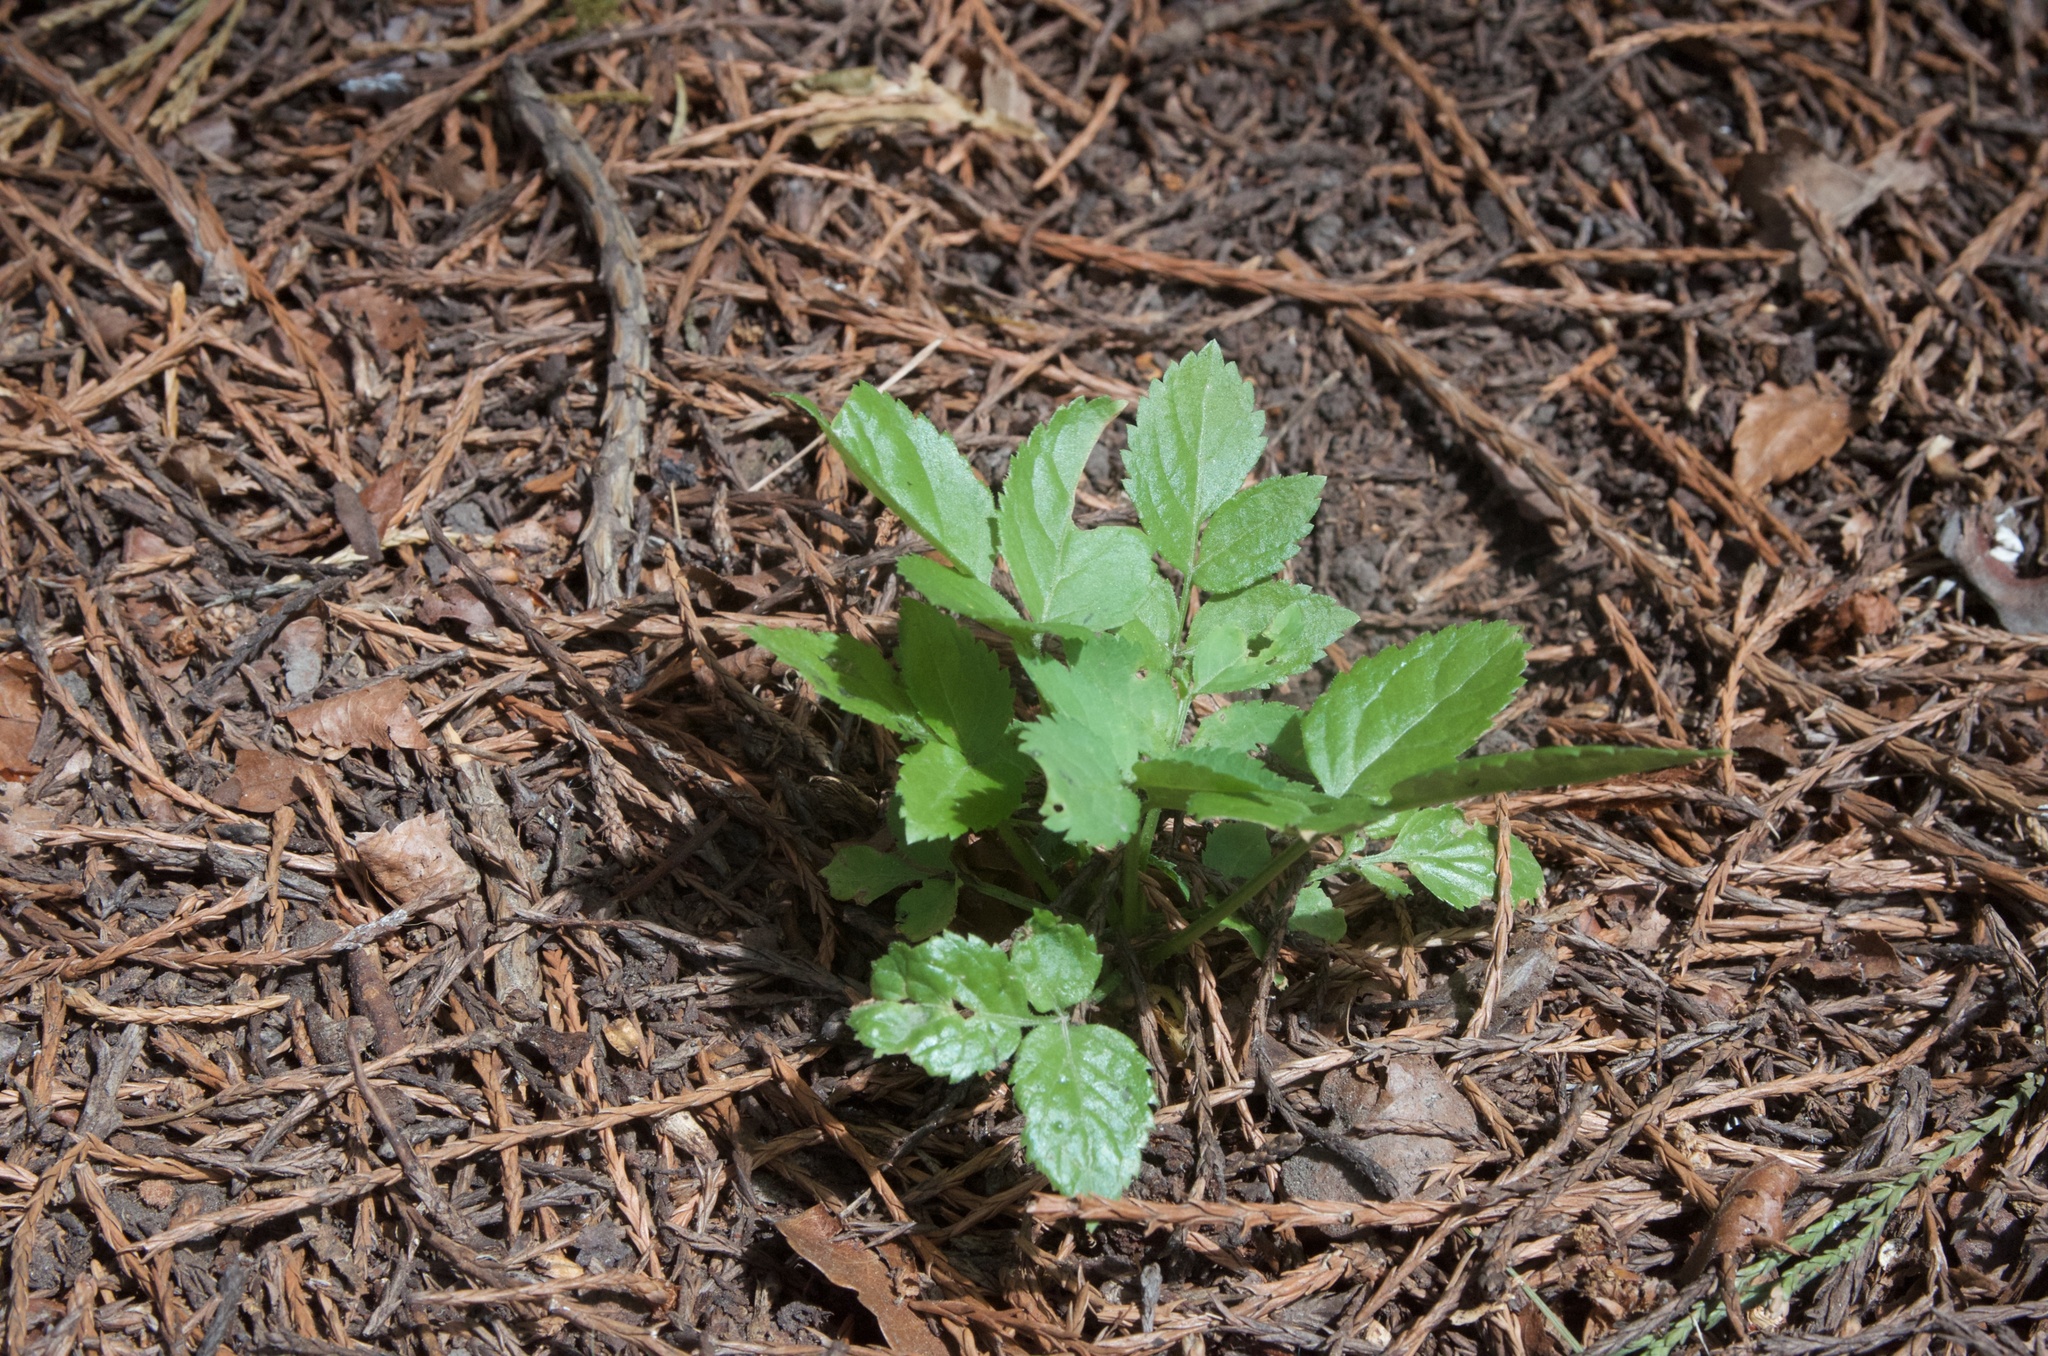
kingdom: Plantae
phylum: Tracheophyta
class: Magnoliopsida
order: Dipsacales
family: Viburnaceae
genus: Sambucus
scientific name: Sambucus nigra
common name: Elder
